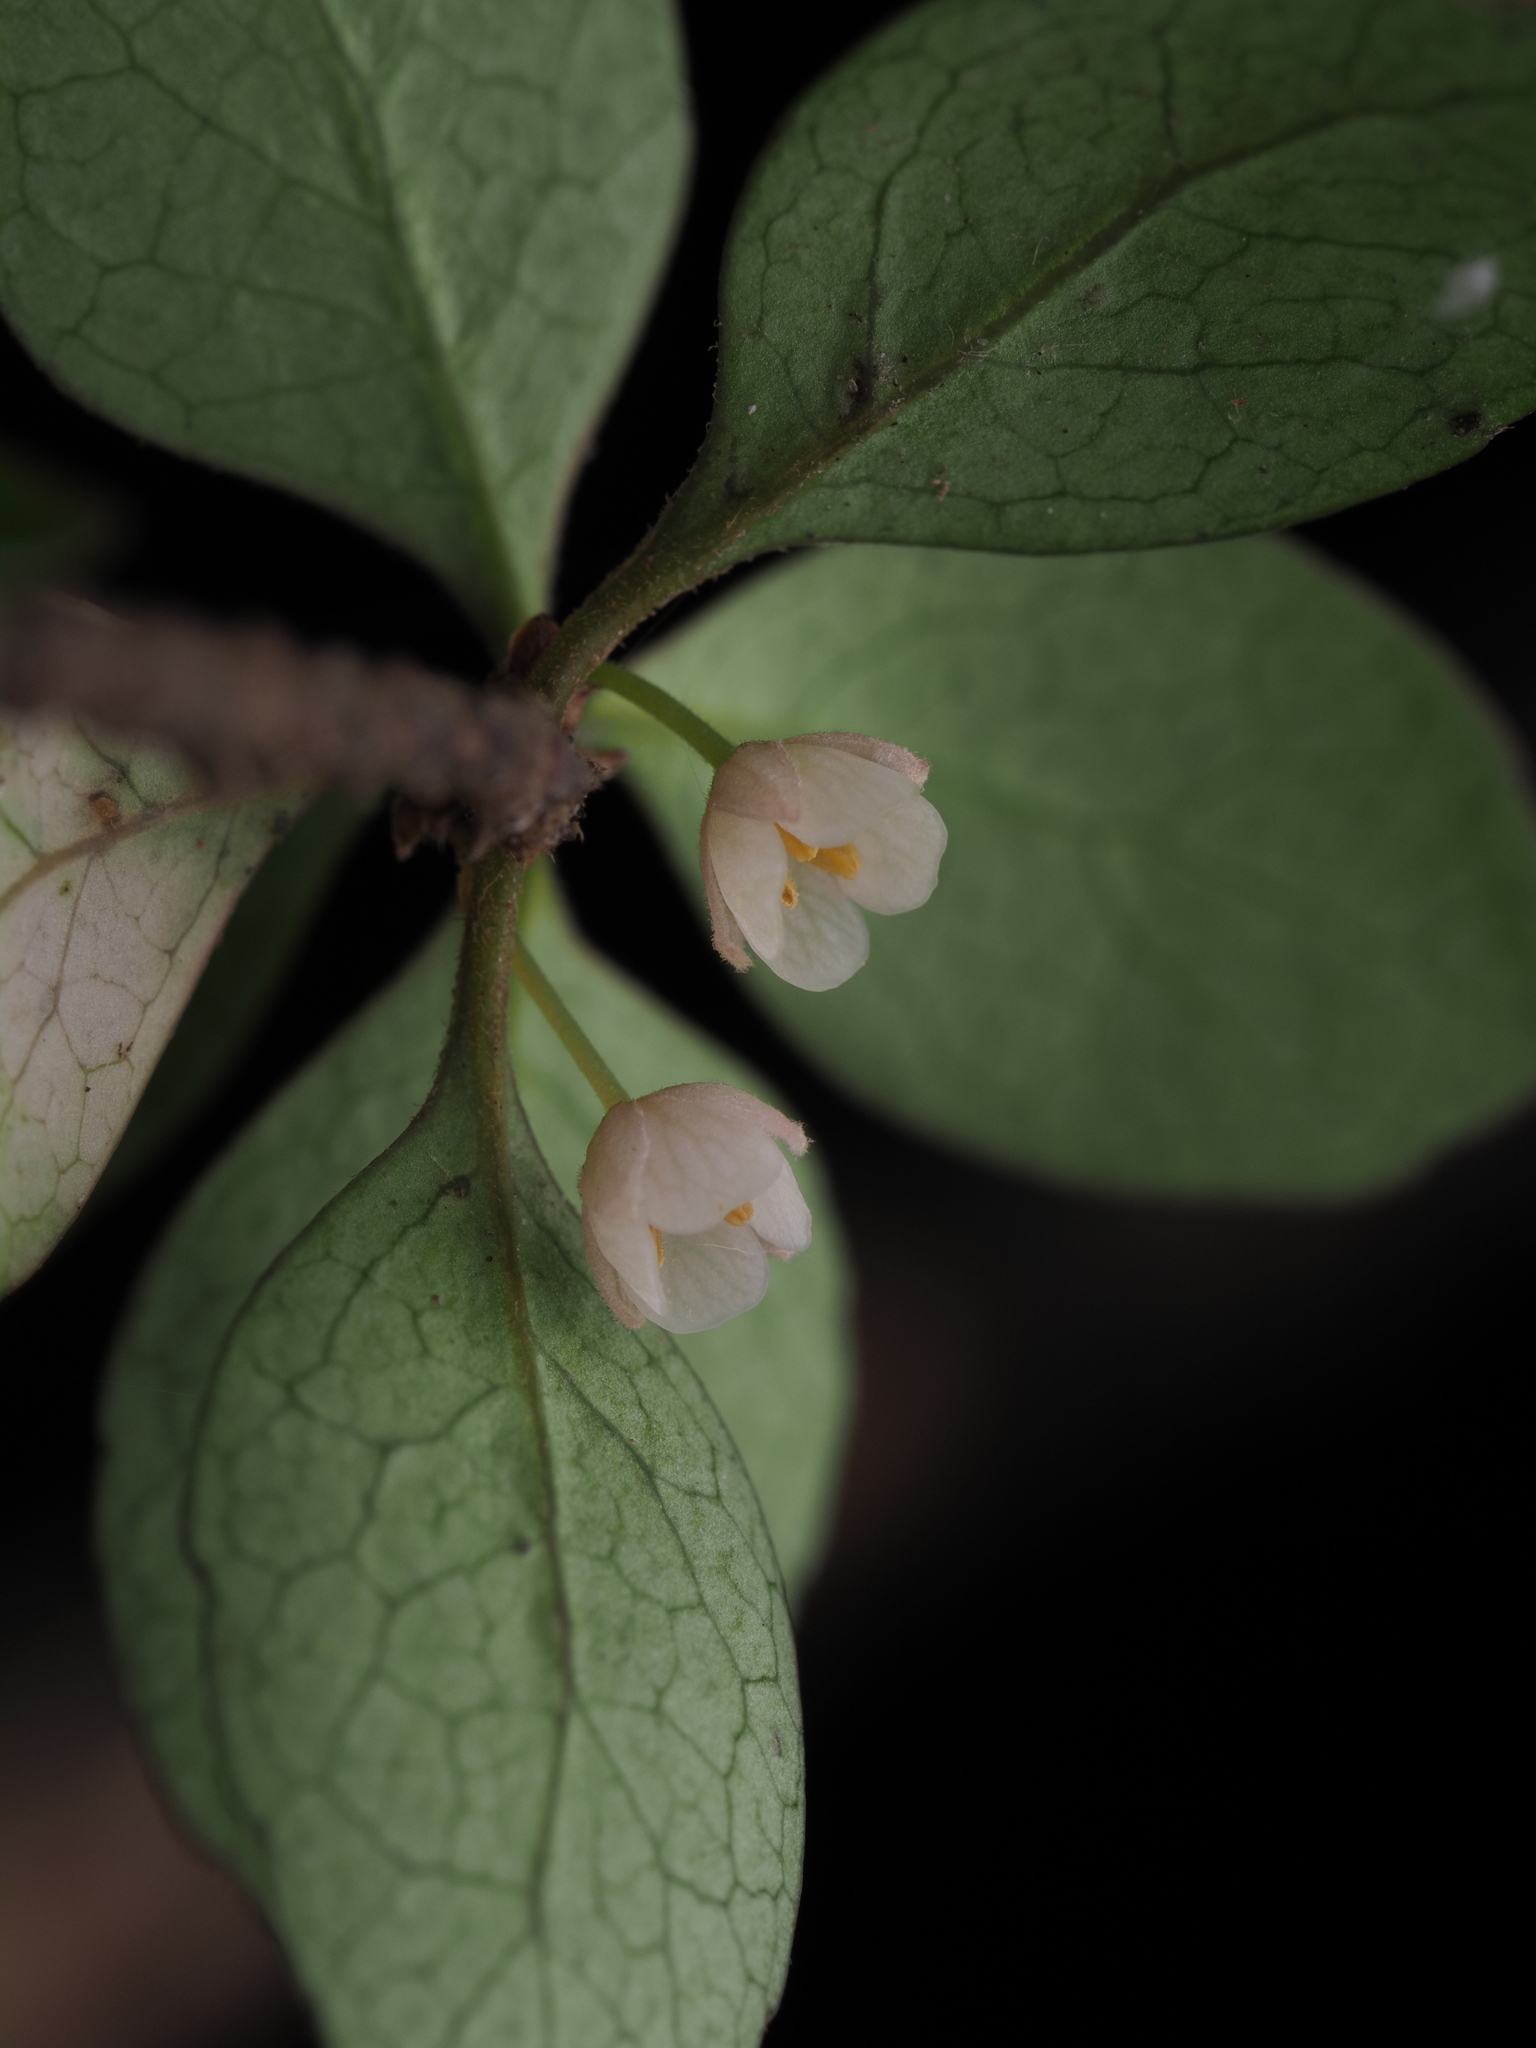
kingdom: Plantae
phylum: Tracheophyta
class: Magnoliopsida
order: Oxalidales
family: Elaeocarpaceae
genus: Aristotelia
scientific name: Aristotelia fruticosa
